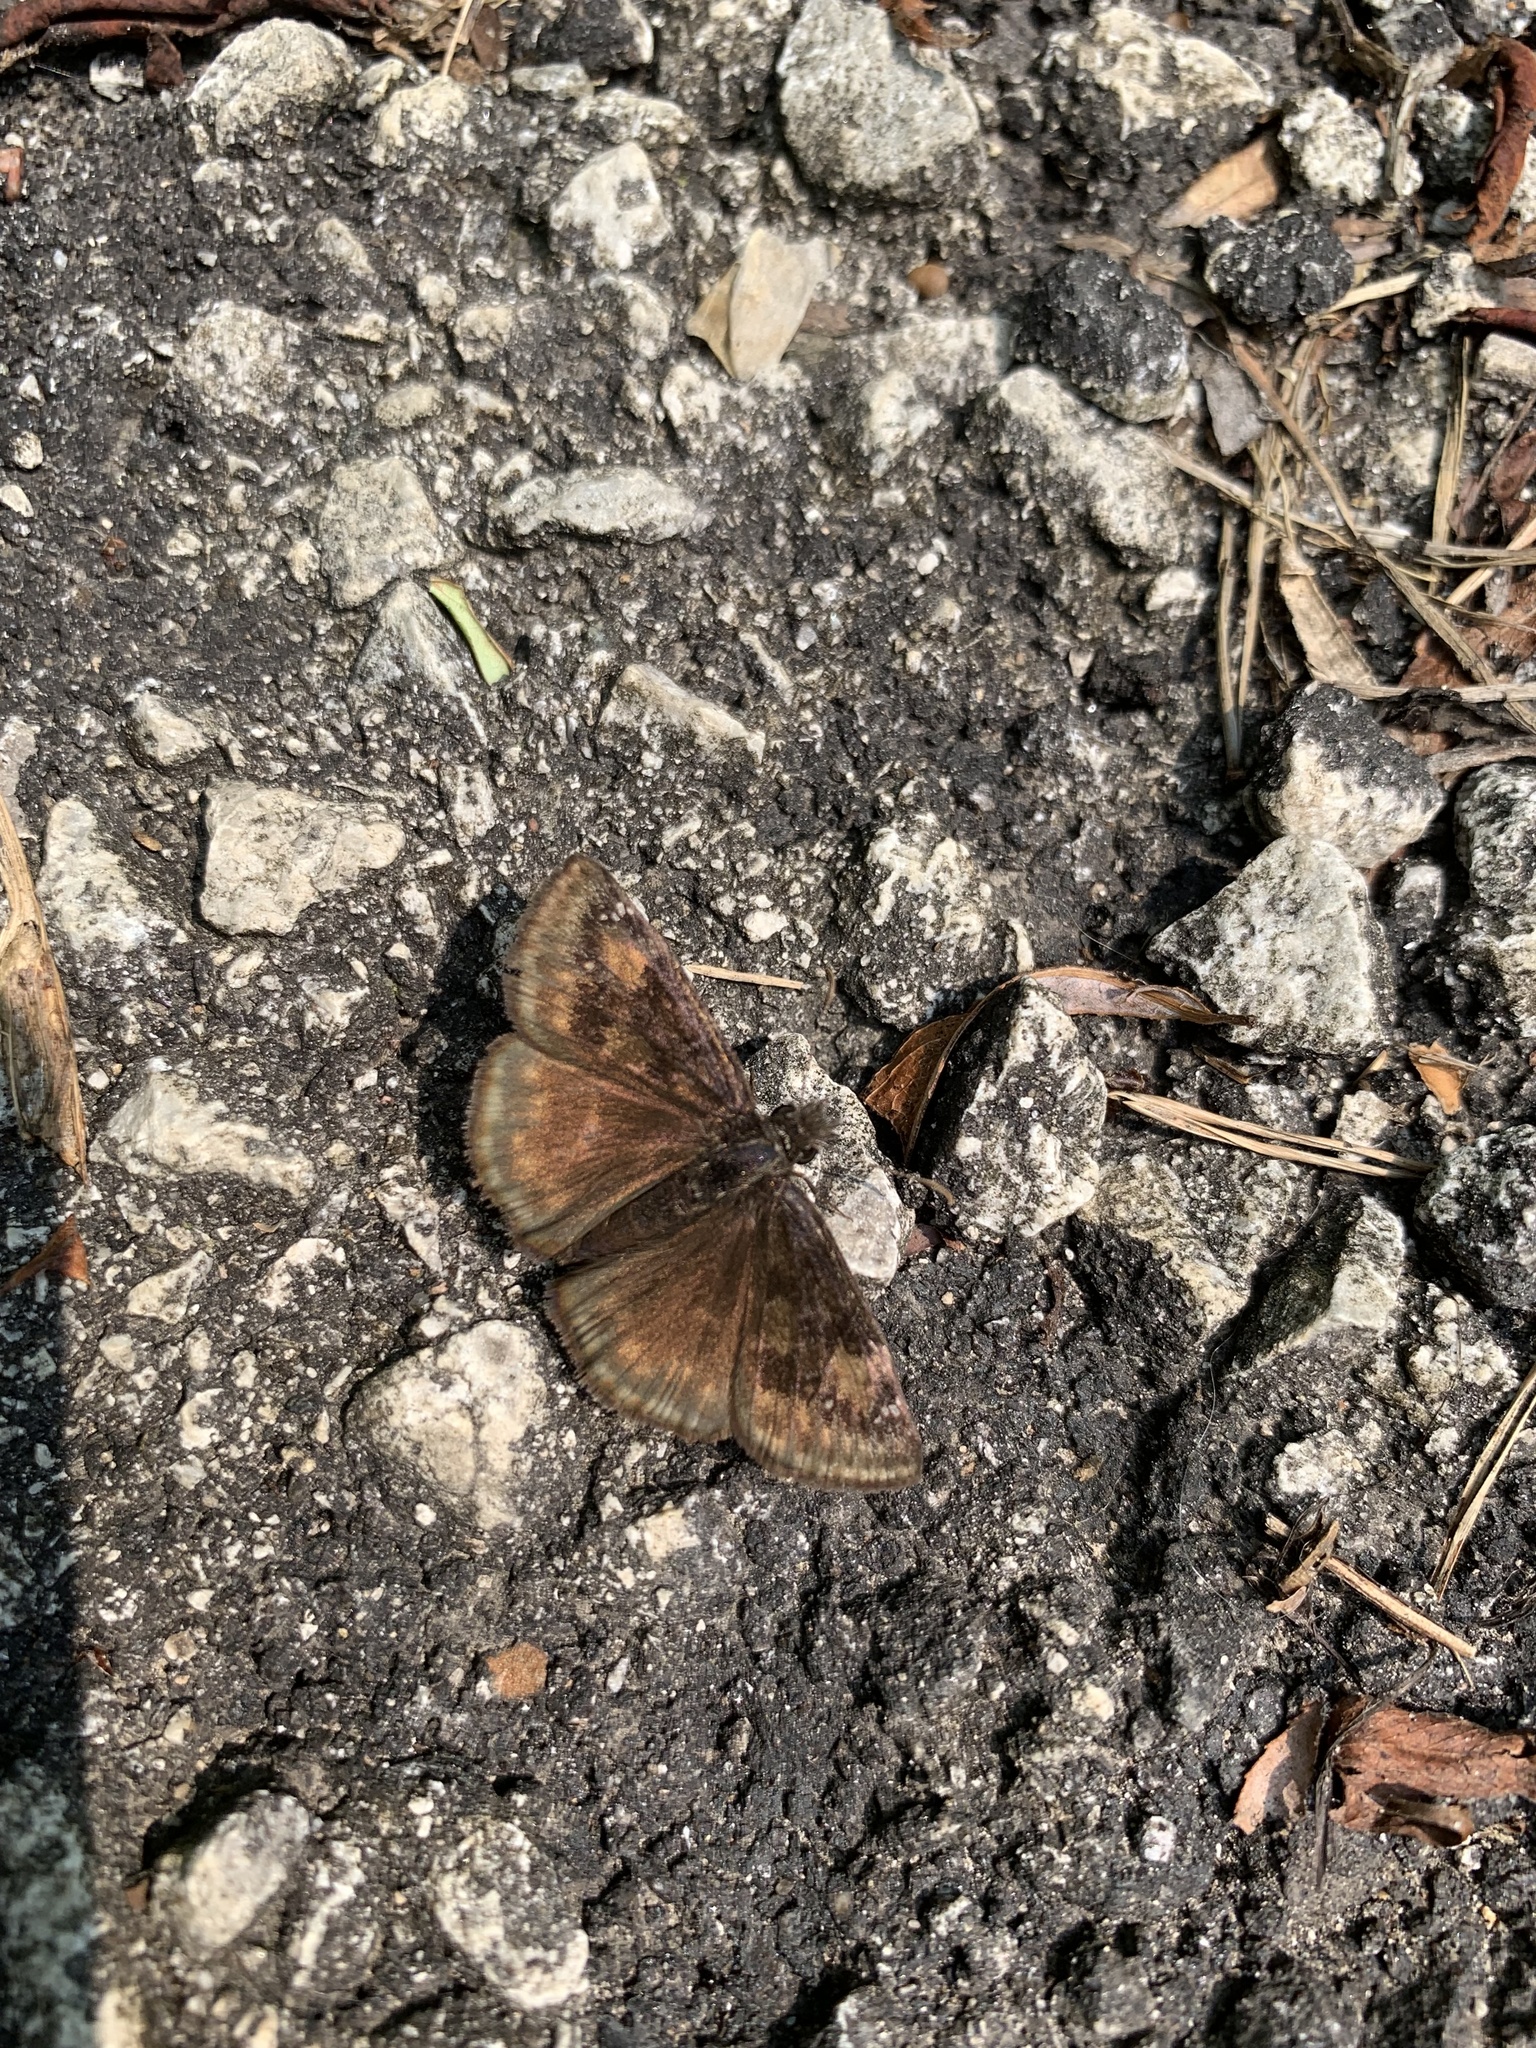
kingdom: Animalia
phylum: Arthropoda
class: Insecta
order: Lepidoptera
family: Hesperiidae
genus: Erynnis
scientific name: Erynnis baptisiae
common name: Wild indigo duskywing
